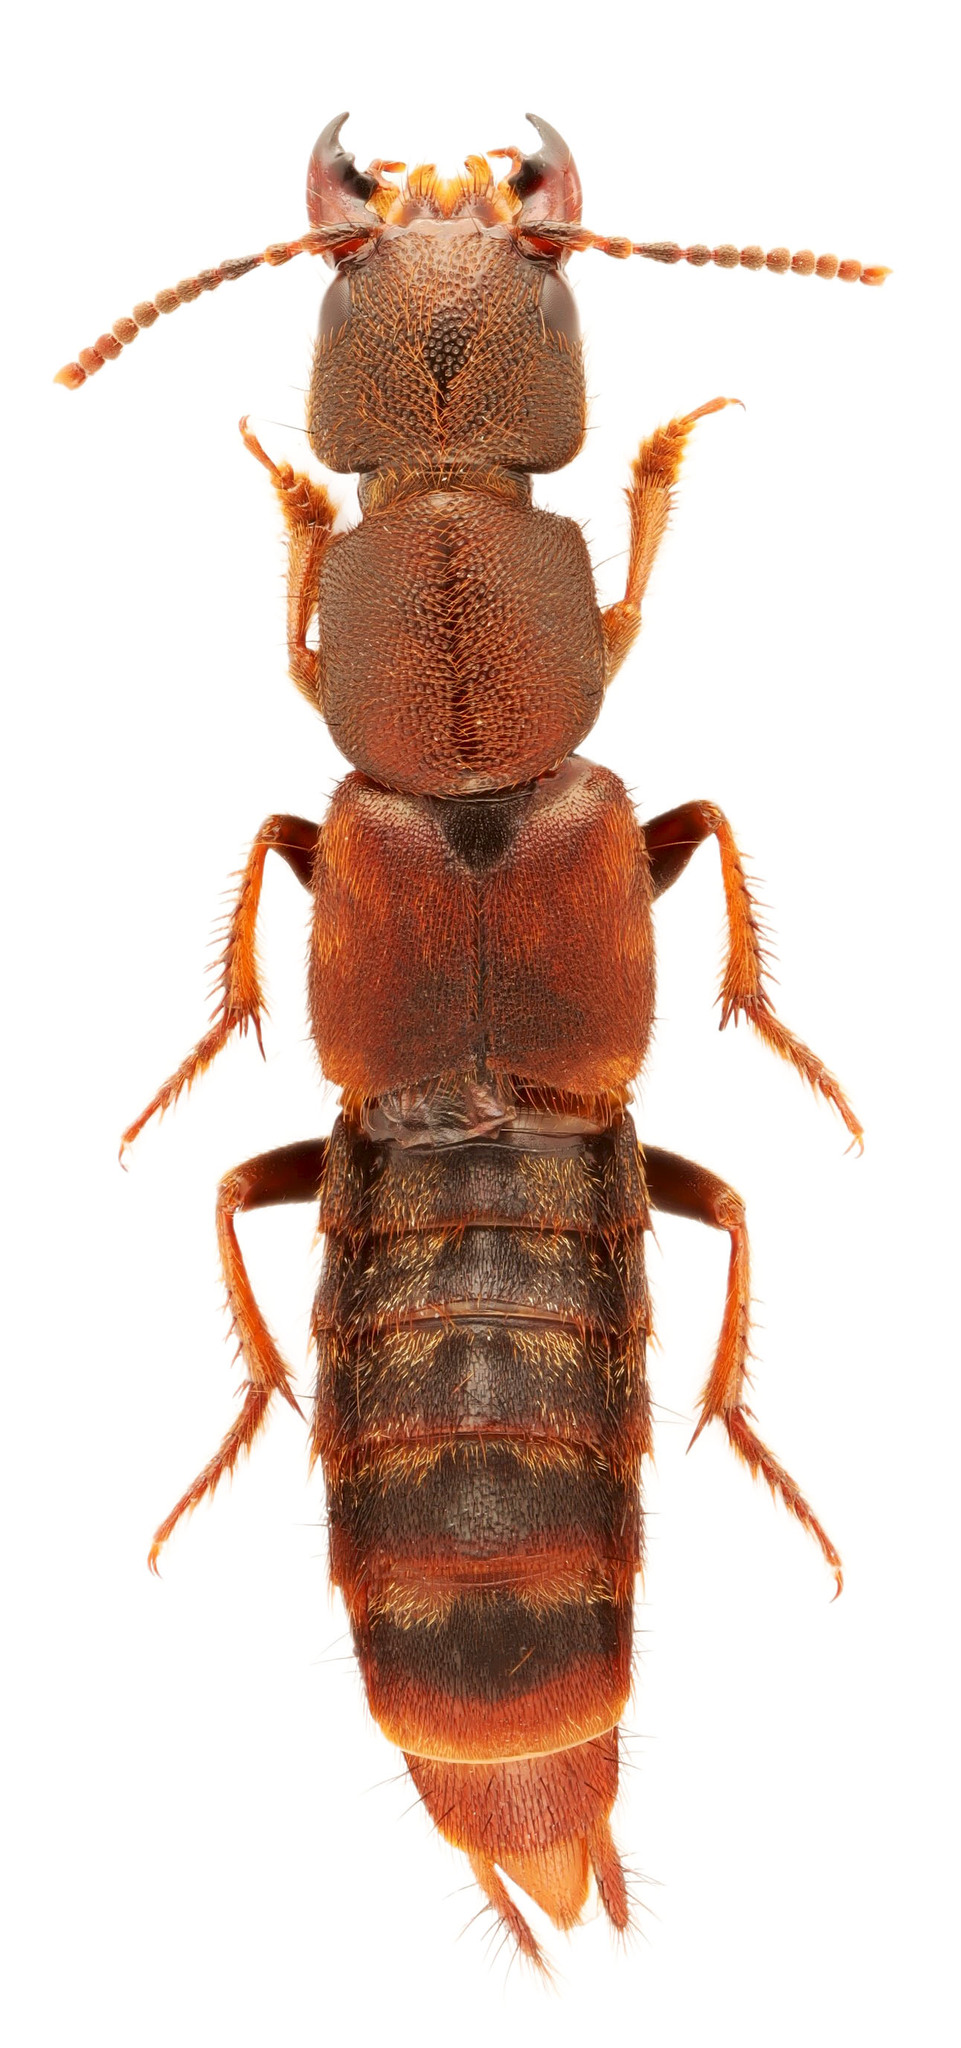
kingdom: Animalia
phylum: Arthropoda
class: Insecta
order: Coleoptera
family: Staphylinidae
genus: Platydracus
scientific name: Platydracus zonatus
